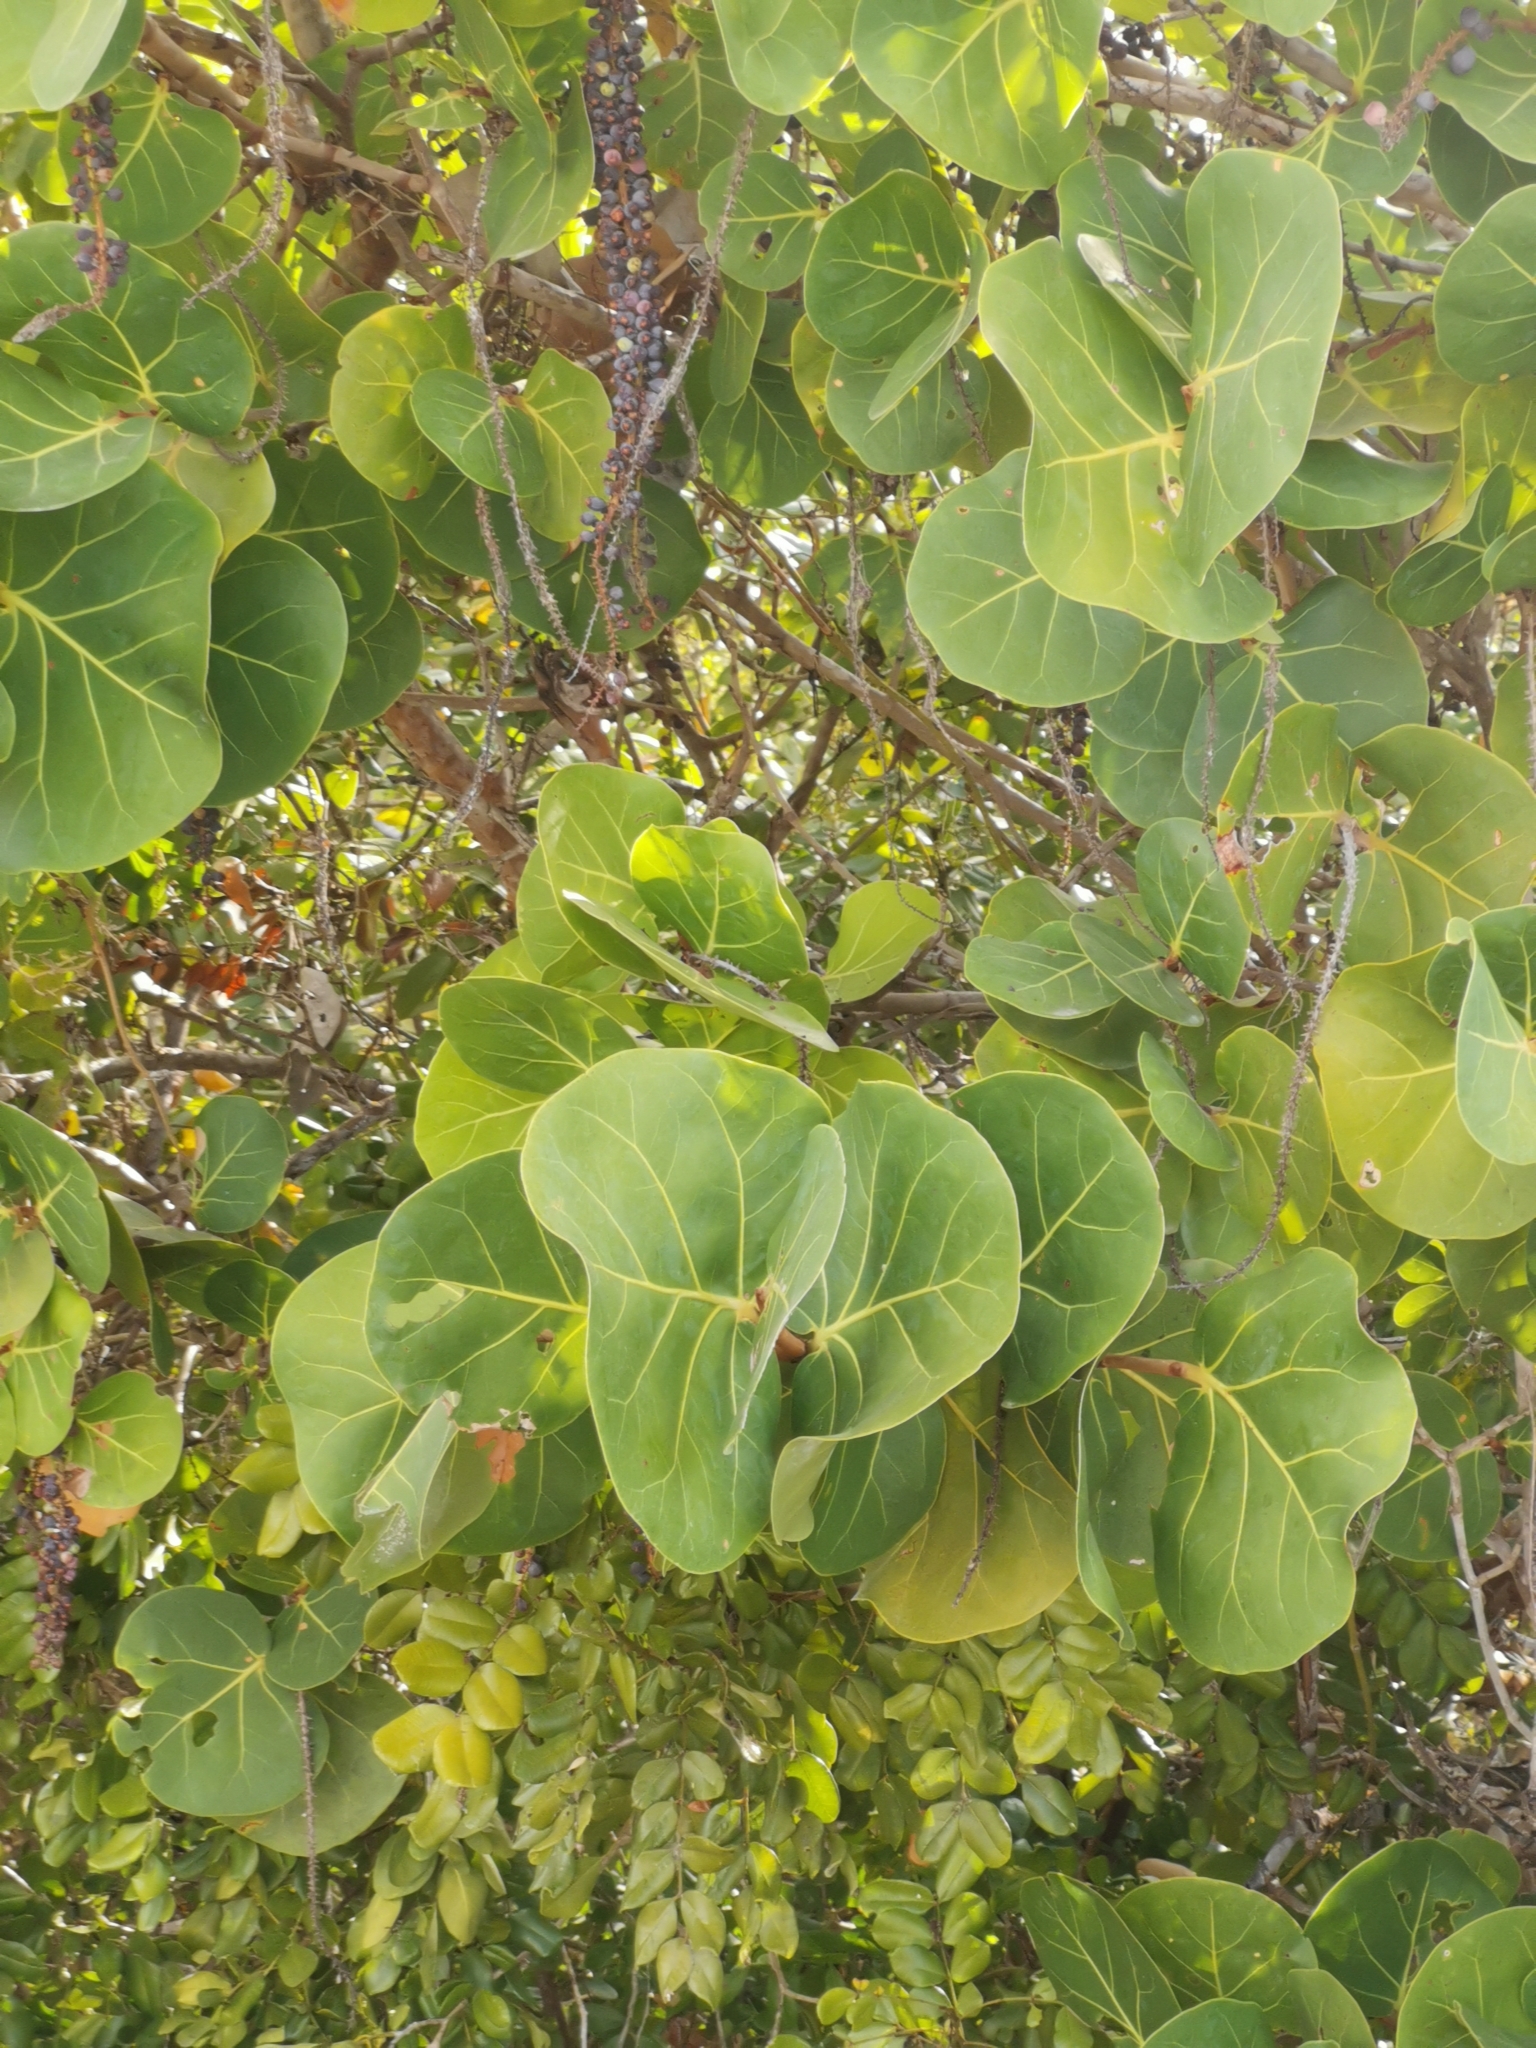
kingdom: Plantae
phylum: Tracheophyta
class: Magnoliopsida
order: Caryophyllales
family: Polygonaceae
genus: Coccoloba
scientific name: Coccoloba uvifera
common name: Seagrape
